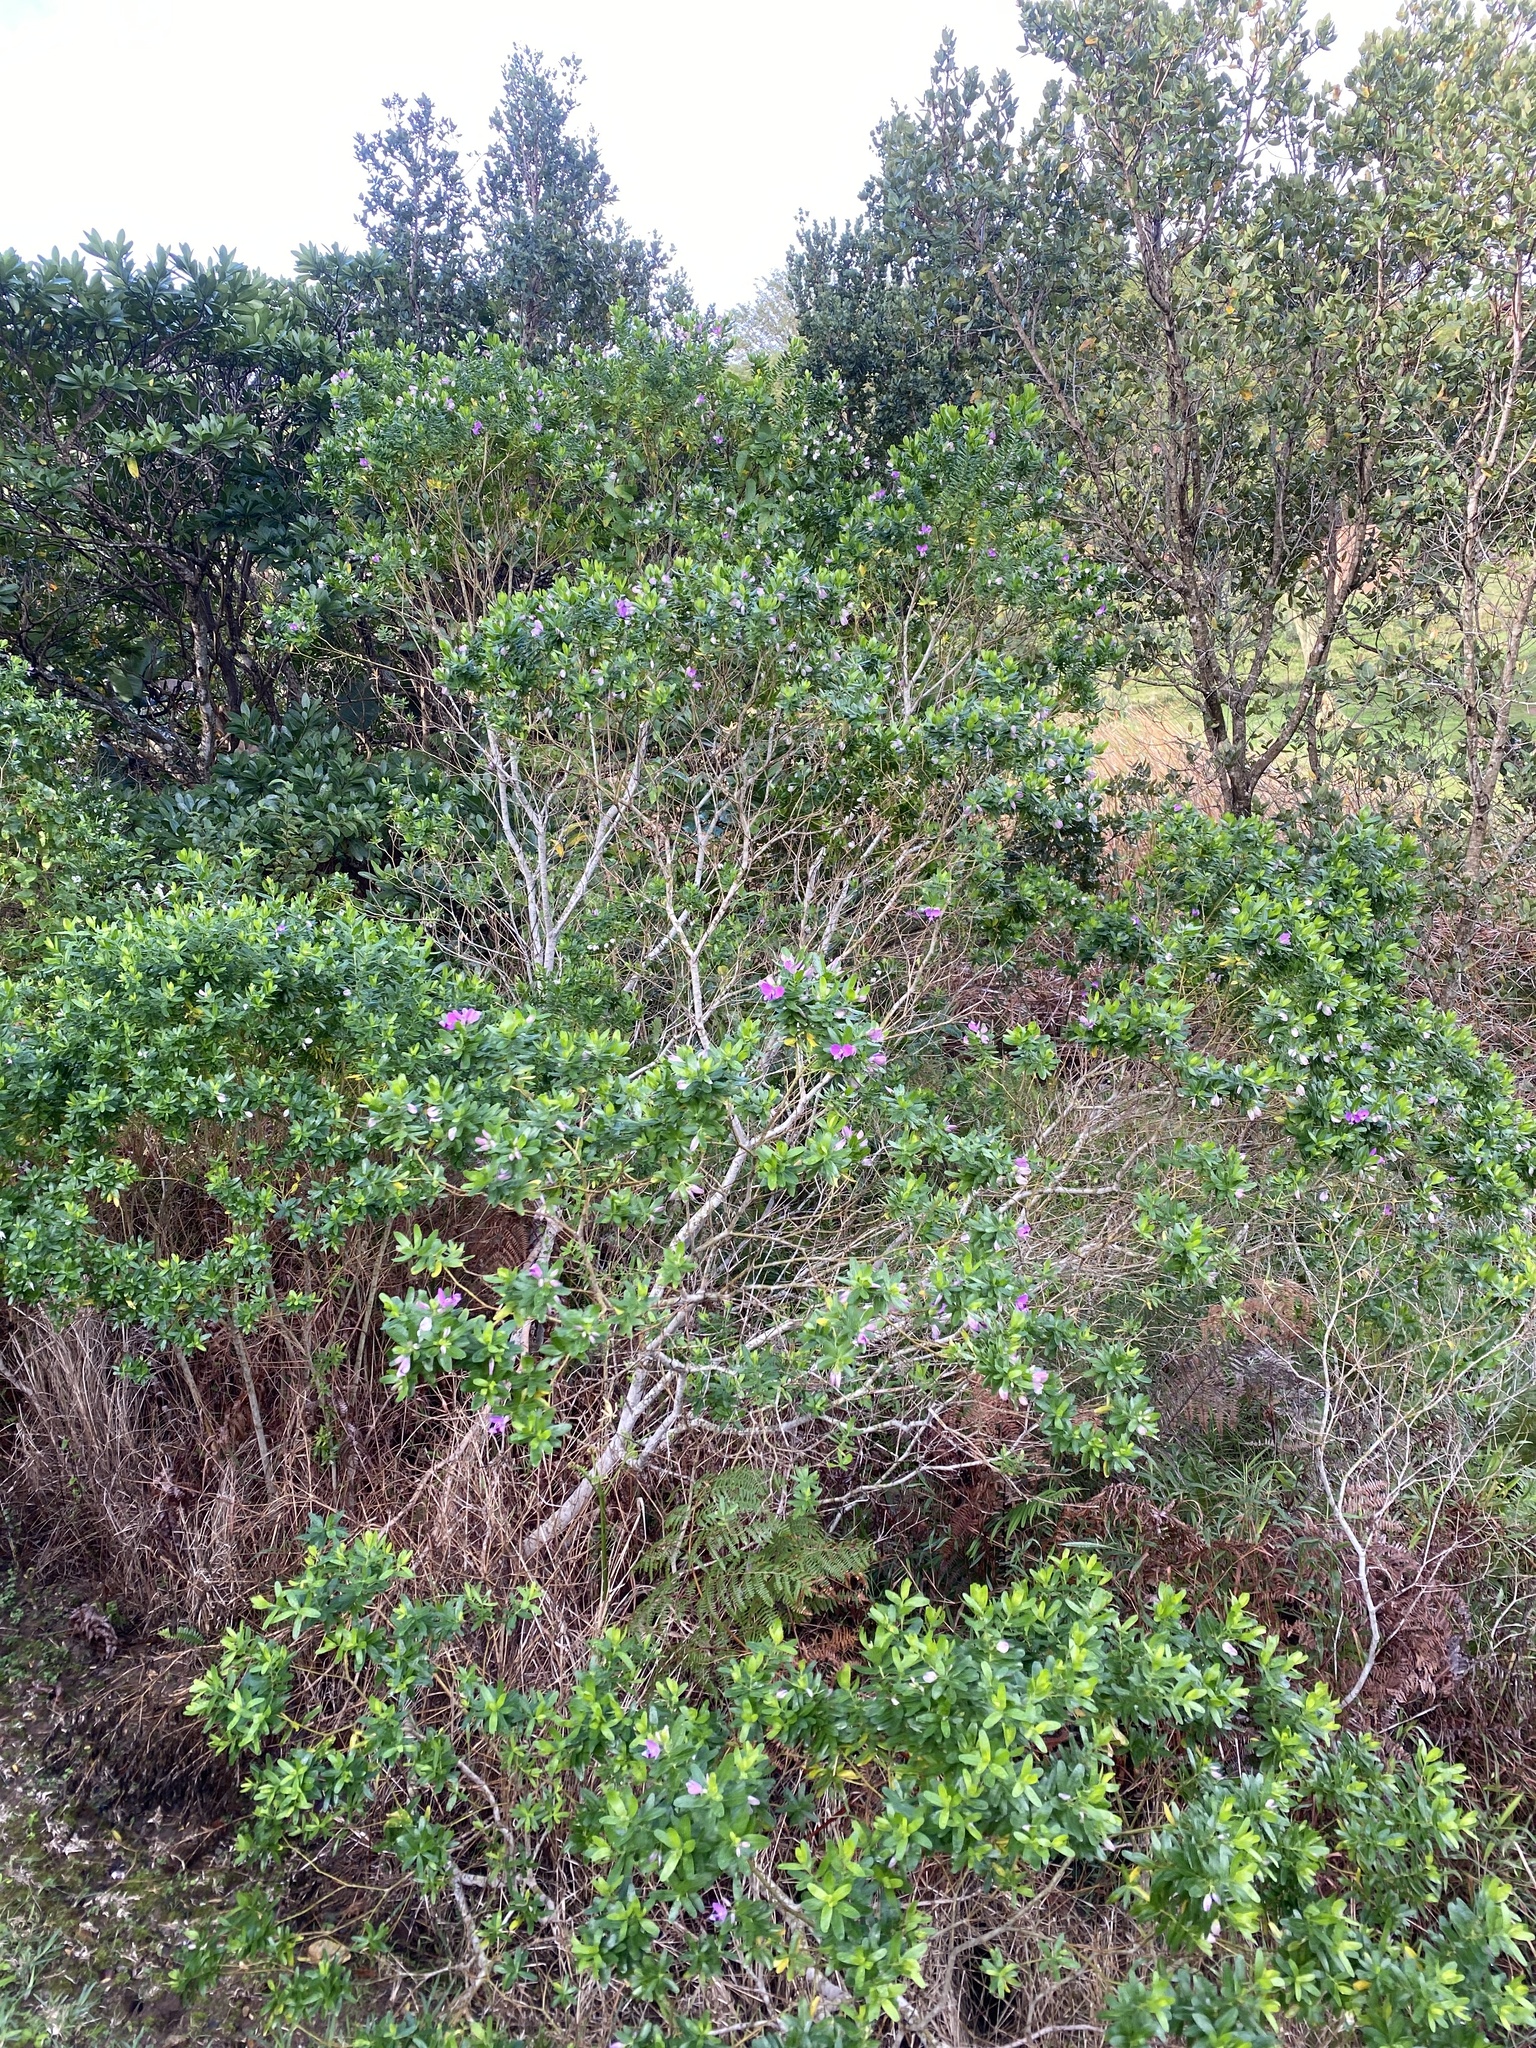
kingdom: Plantae
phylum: Tracheophyta
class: Magnoliopsida
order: Fabales
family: Polygalaceae
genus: Polygala
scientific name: Polygala myrtifolia
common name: Myrtle-leaf milkwort
